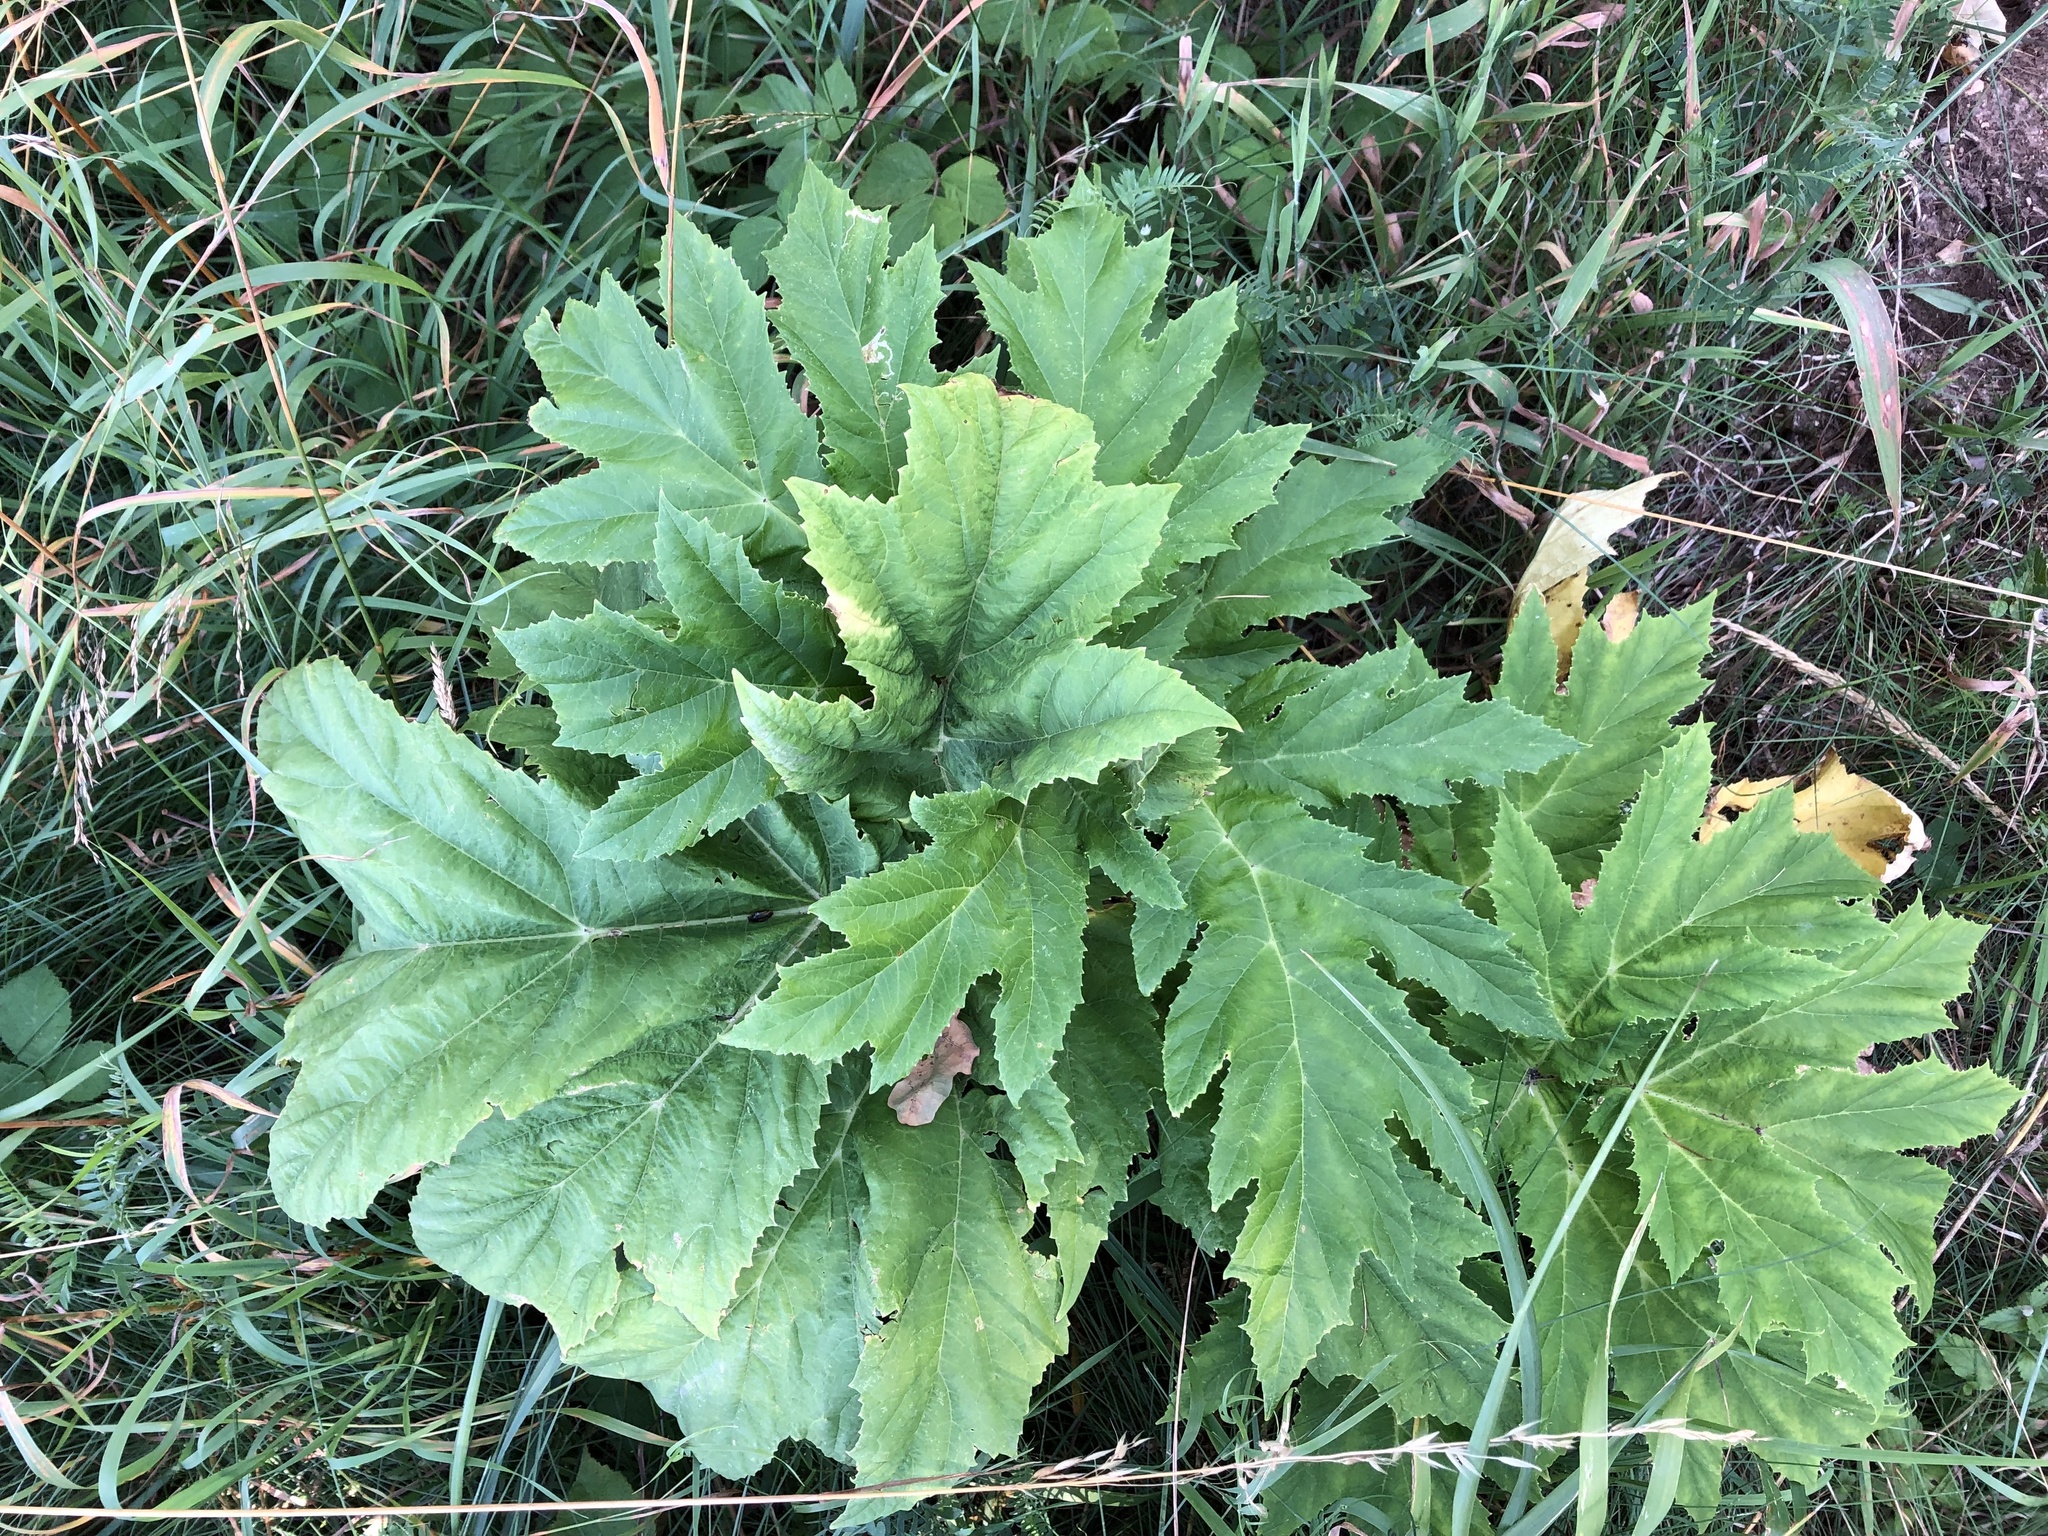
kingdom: Plantae
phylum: Tracheophyta
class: Magnoliopsida
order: Apiales
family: Apiaceae
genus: Heracleum
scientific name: Heracleum mantegazzianum
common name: Giant hogweed
